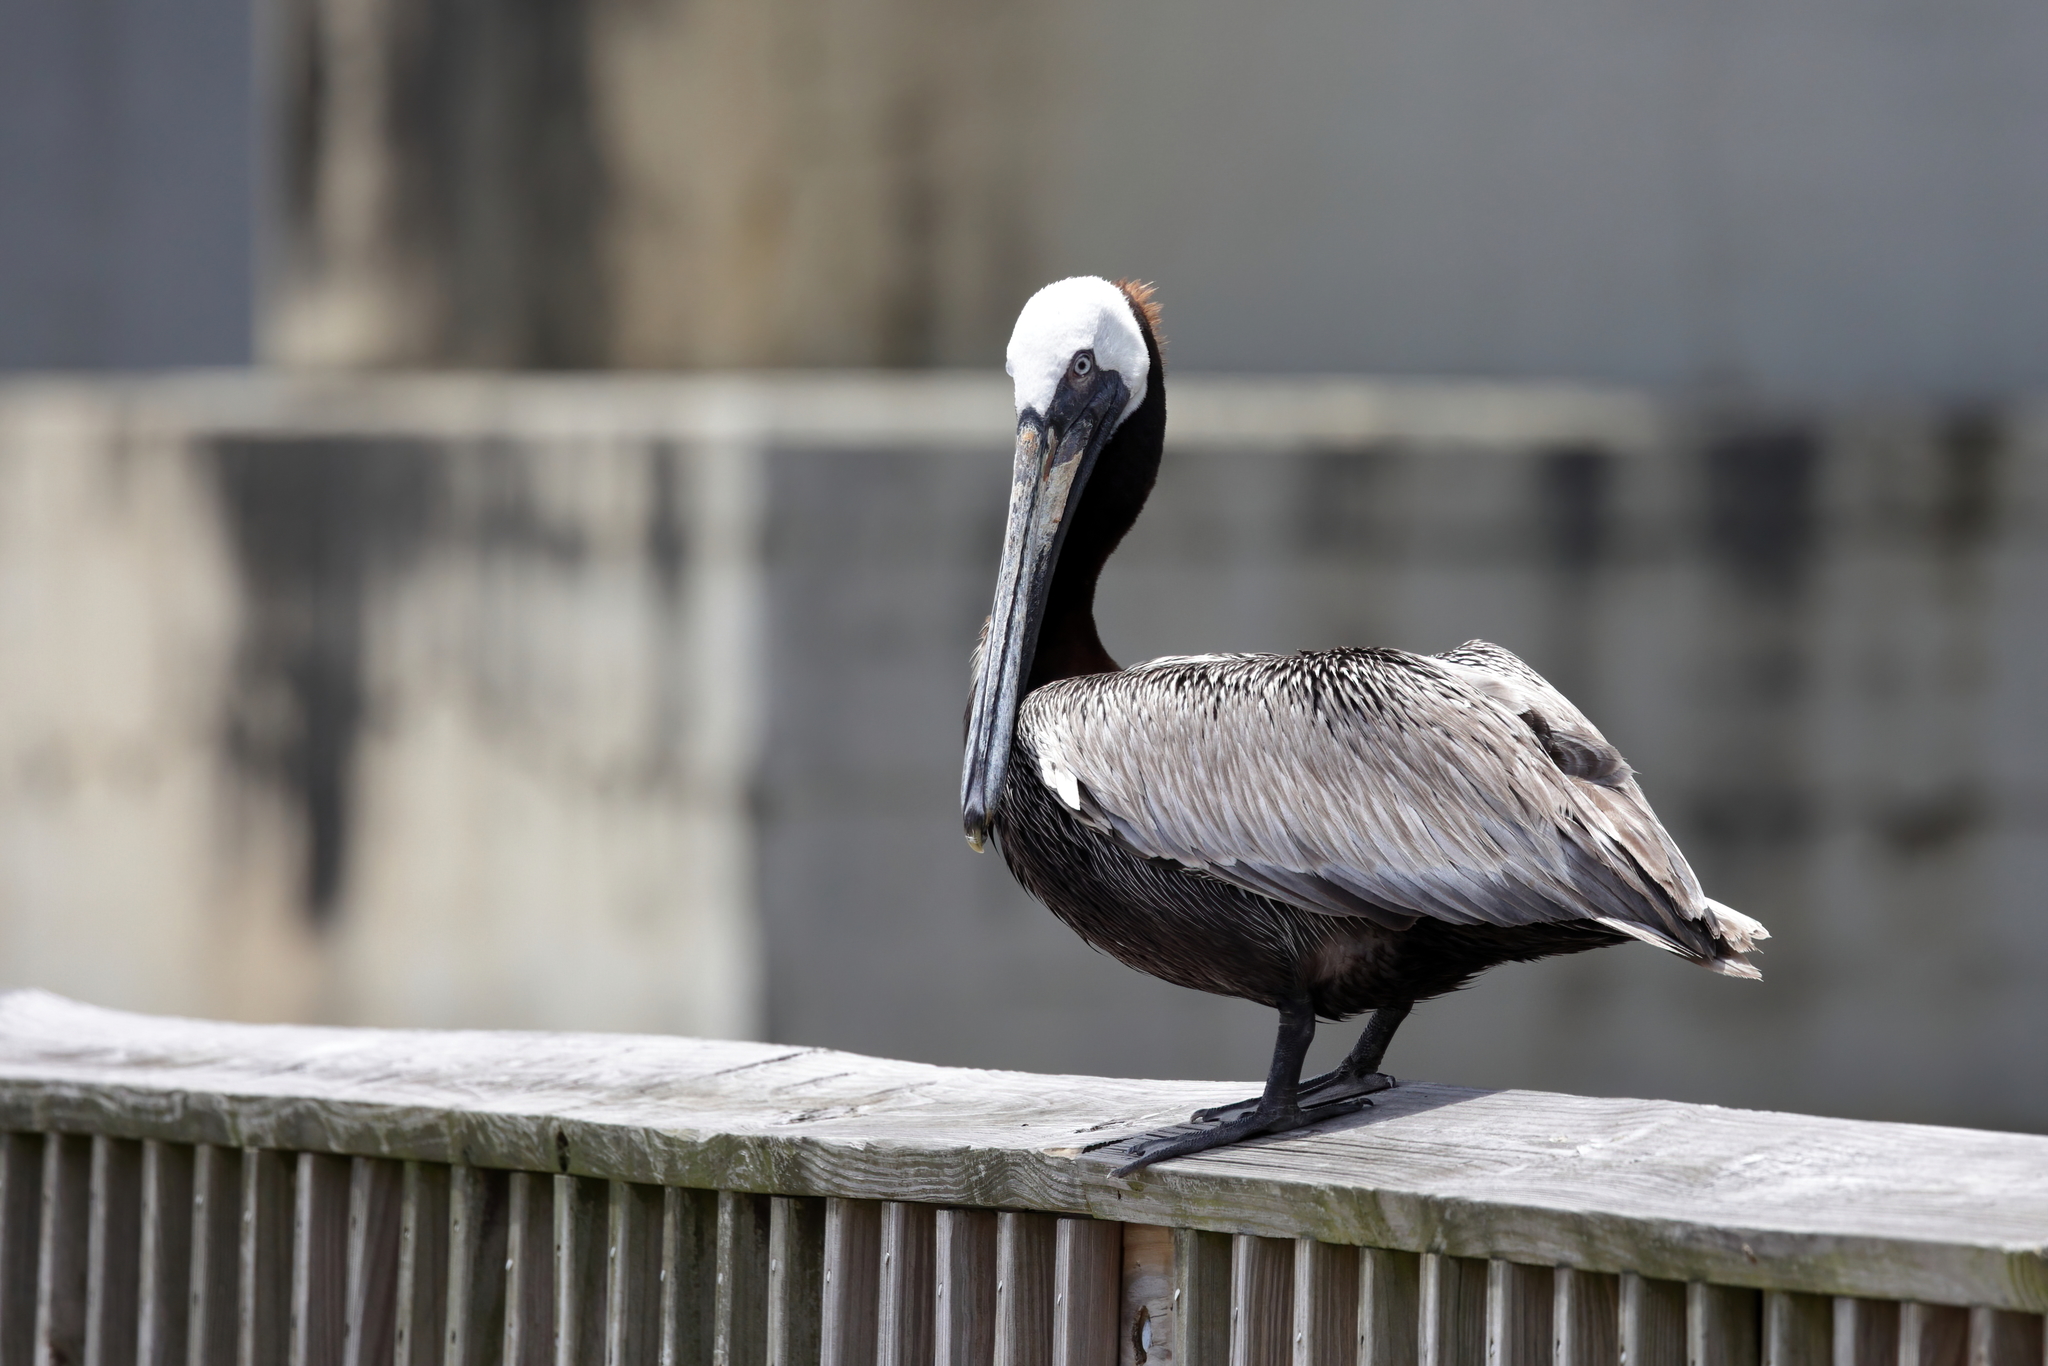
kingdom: Animalia
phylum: Chordata
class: Aves
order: Pelecaniformes
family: Pelecanidae
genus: Pelecanus
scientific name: Pelecanus occidentalis
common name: Brown pelican
